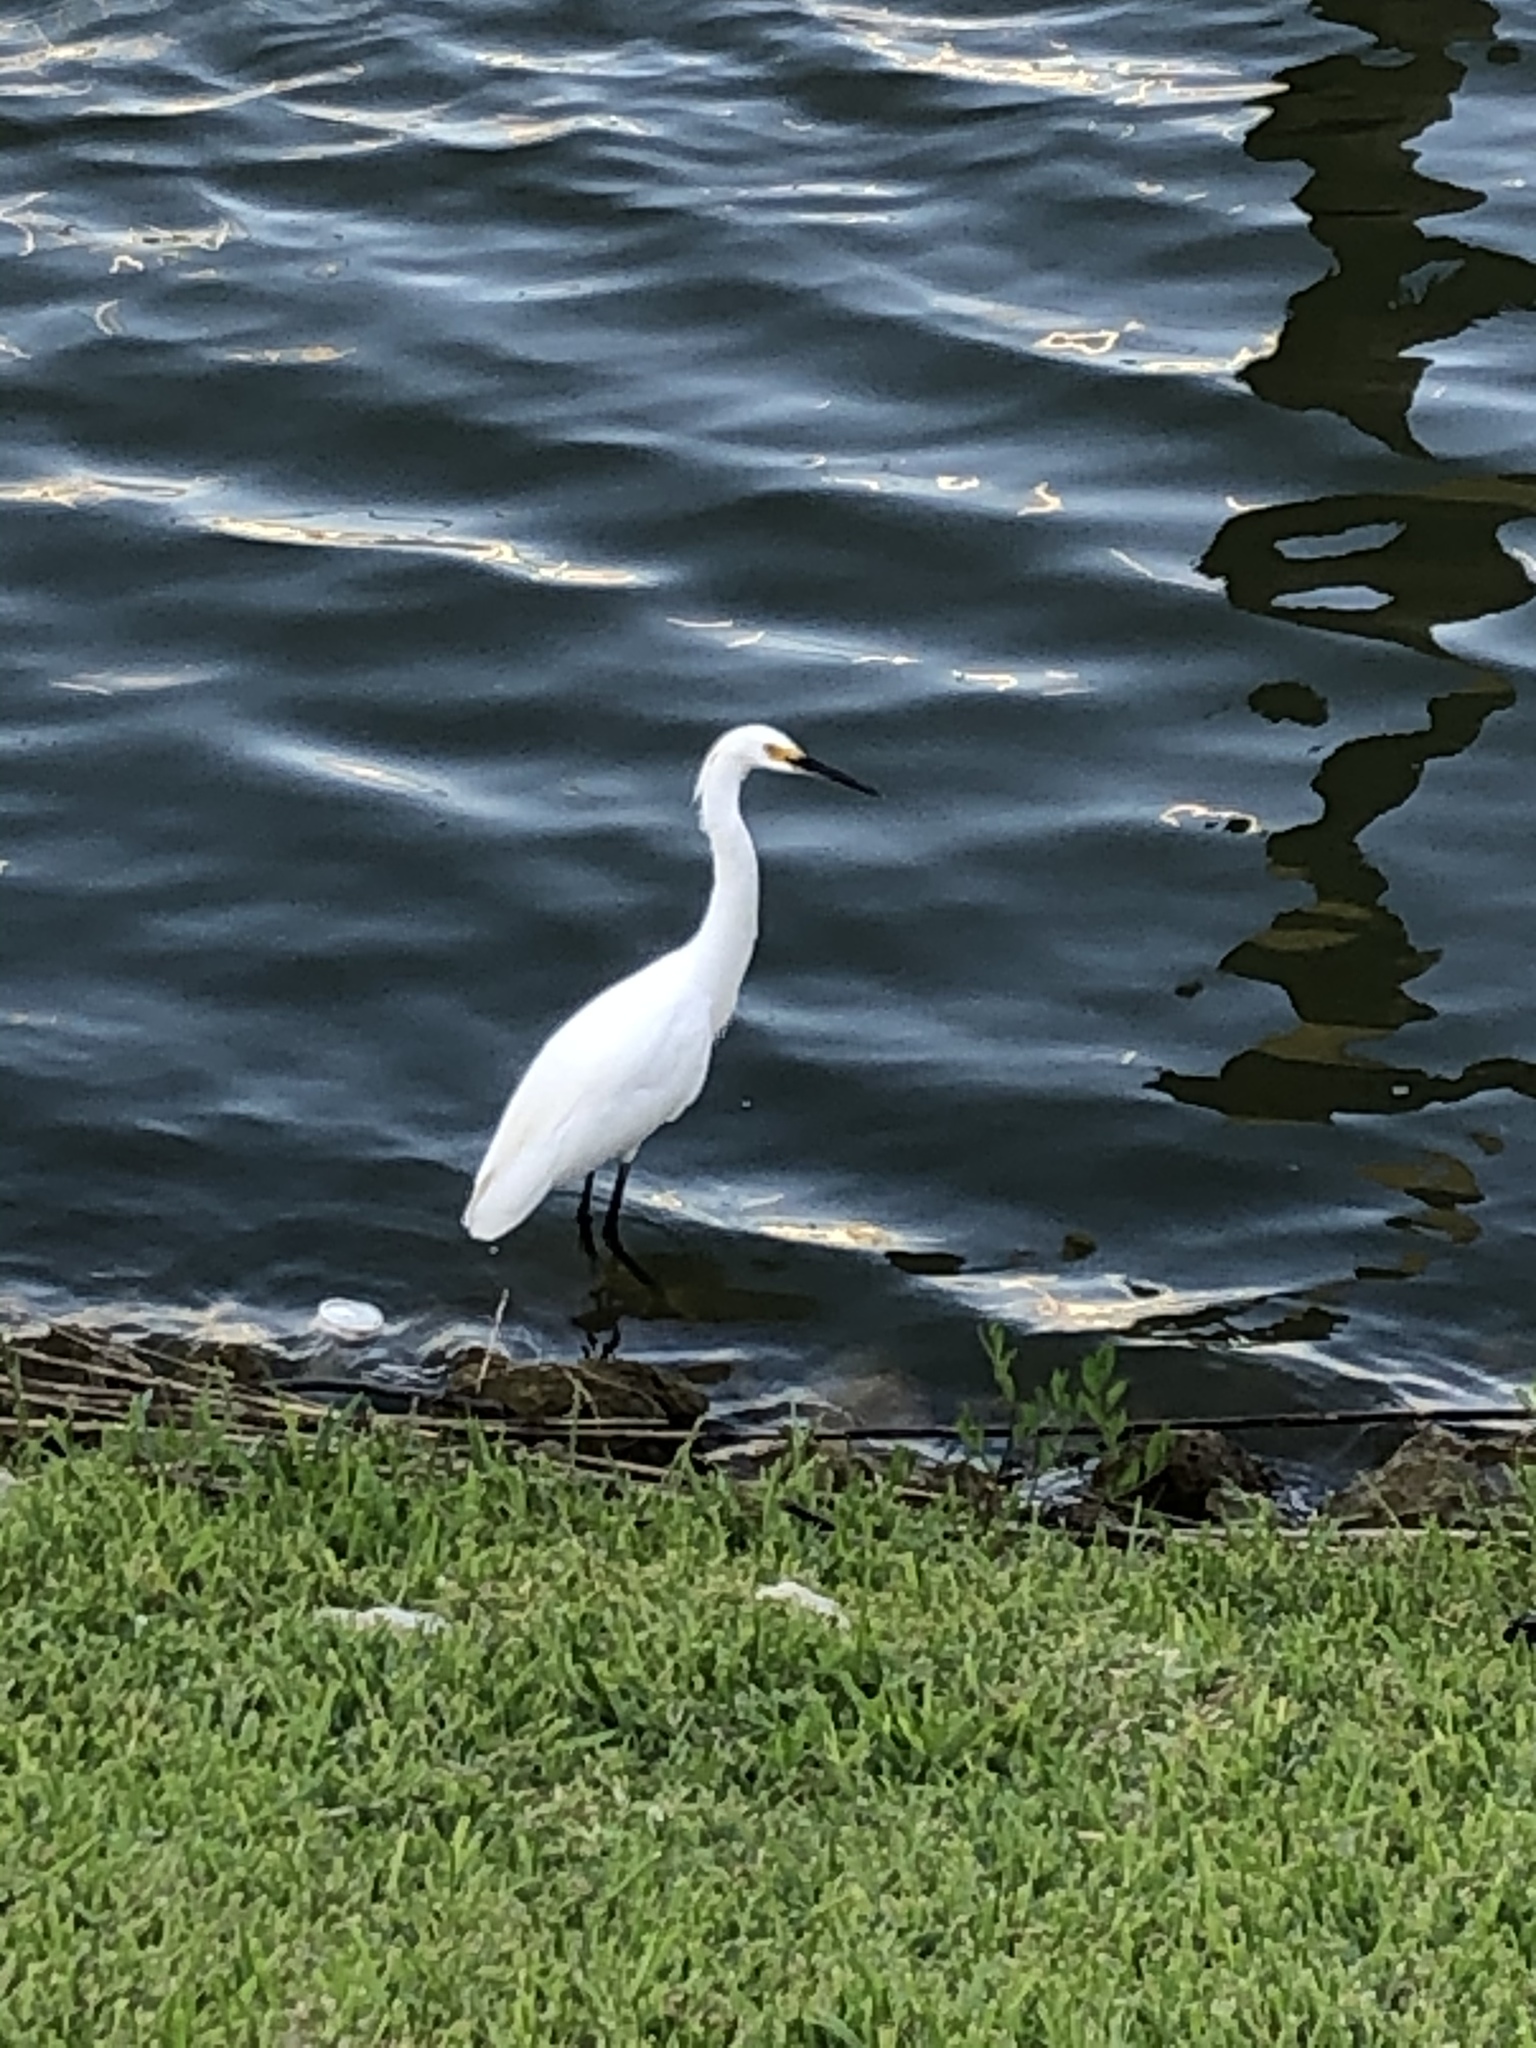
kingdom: Animalia
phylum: Chordata
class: Aves
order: Pelecaniformes
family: Ardeidae
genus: Egretta
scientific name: Egretta thula
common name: Snowy egret
